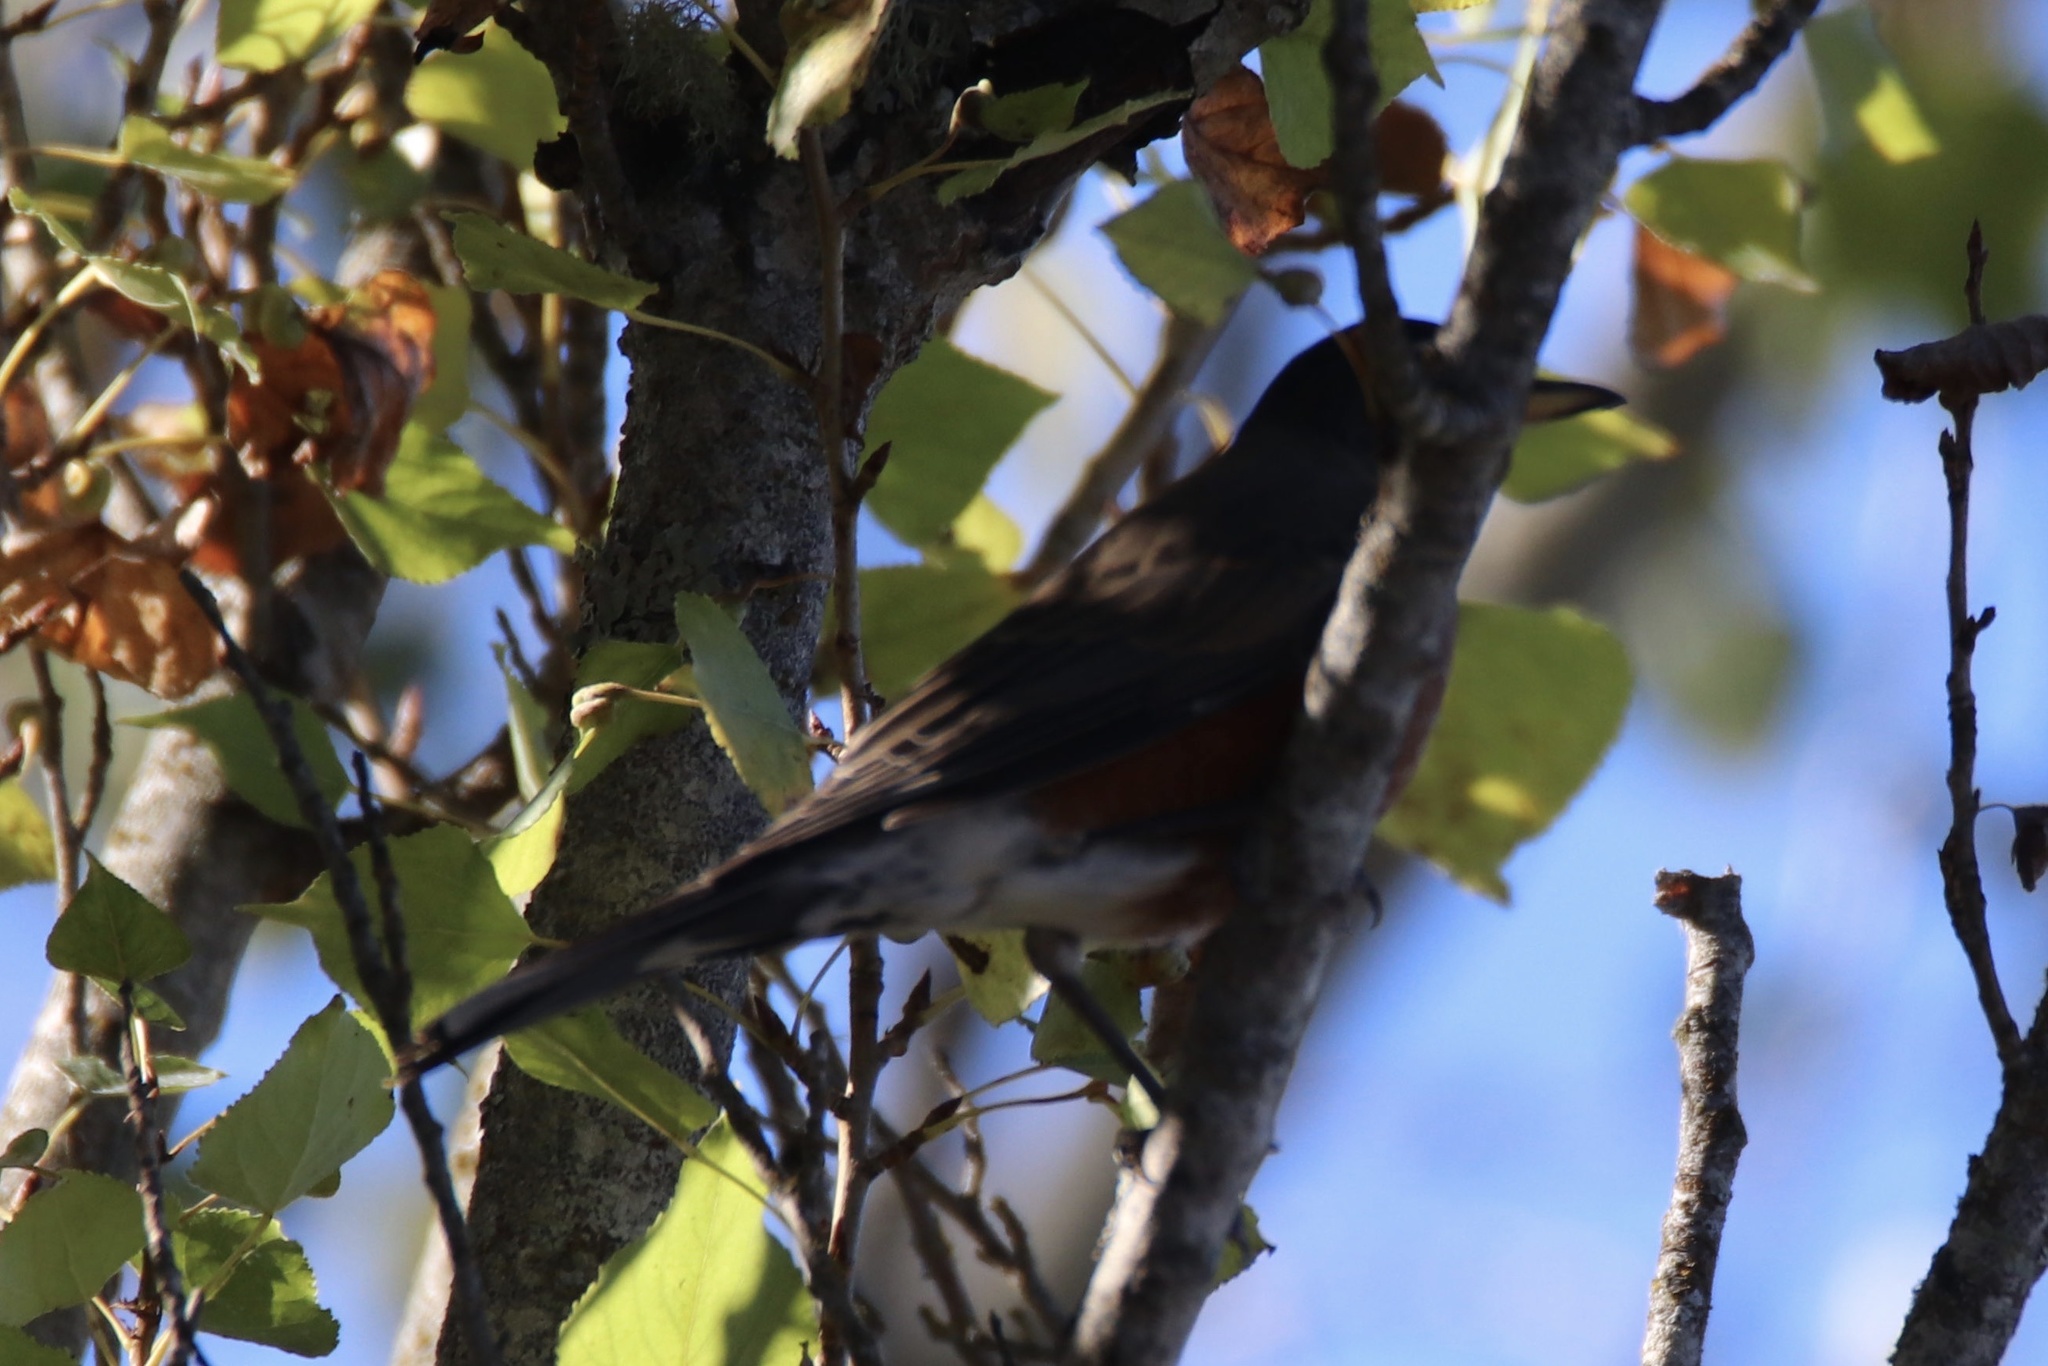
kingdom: Animalia
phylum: Chordata
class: Aves
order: Passeriformes
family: Turdidae
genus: Turdus
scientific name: Turdus migratorius
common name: American robin
